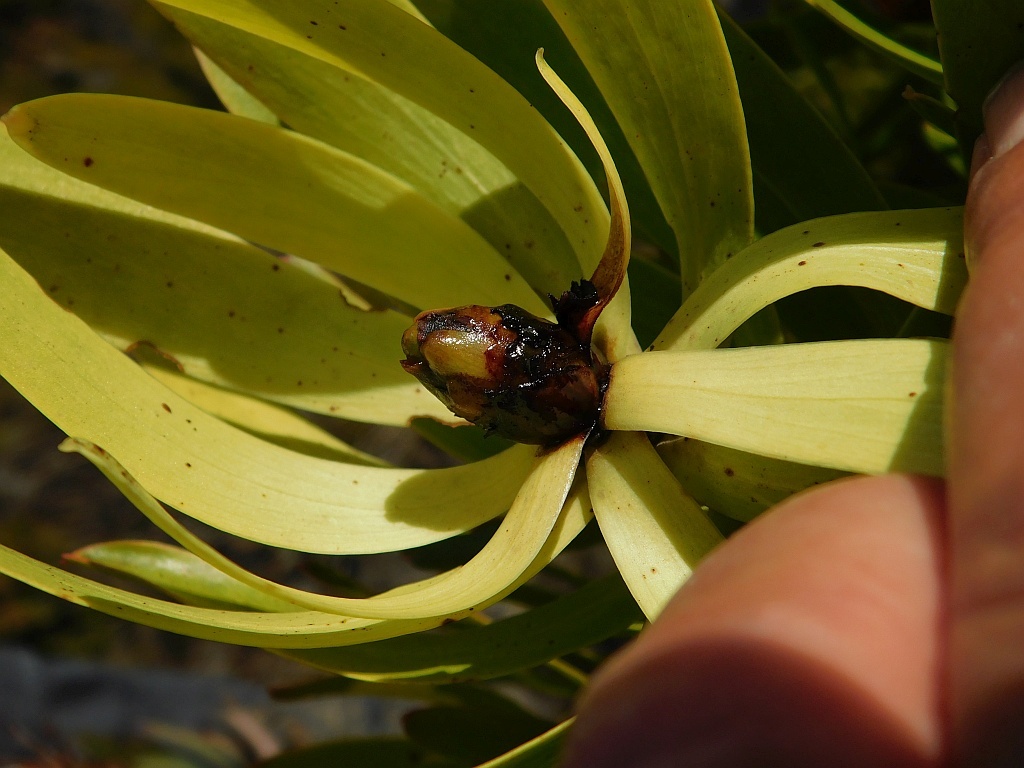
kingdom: Plantae
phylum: Tracheophyta
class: Magnoliopsida
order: Proteales
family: Proteaceae
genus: Leucadendron
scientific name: Leucadendron microcephalum
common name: Oilbract conebush
